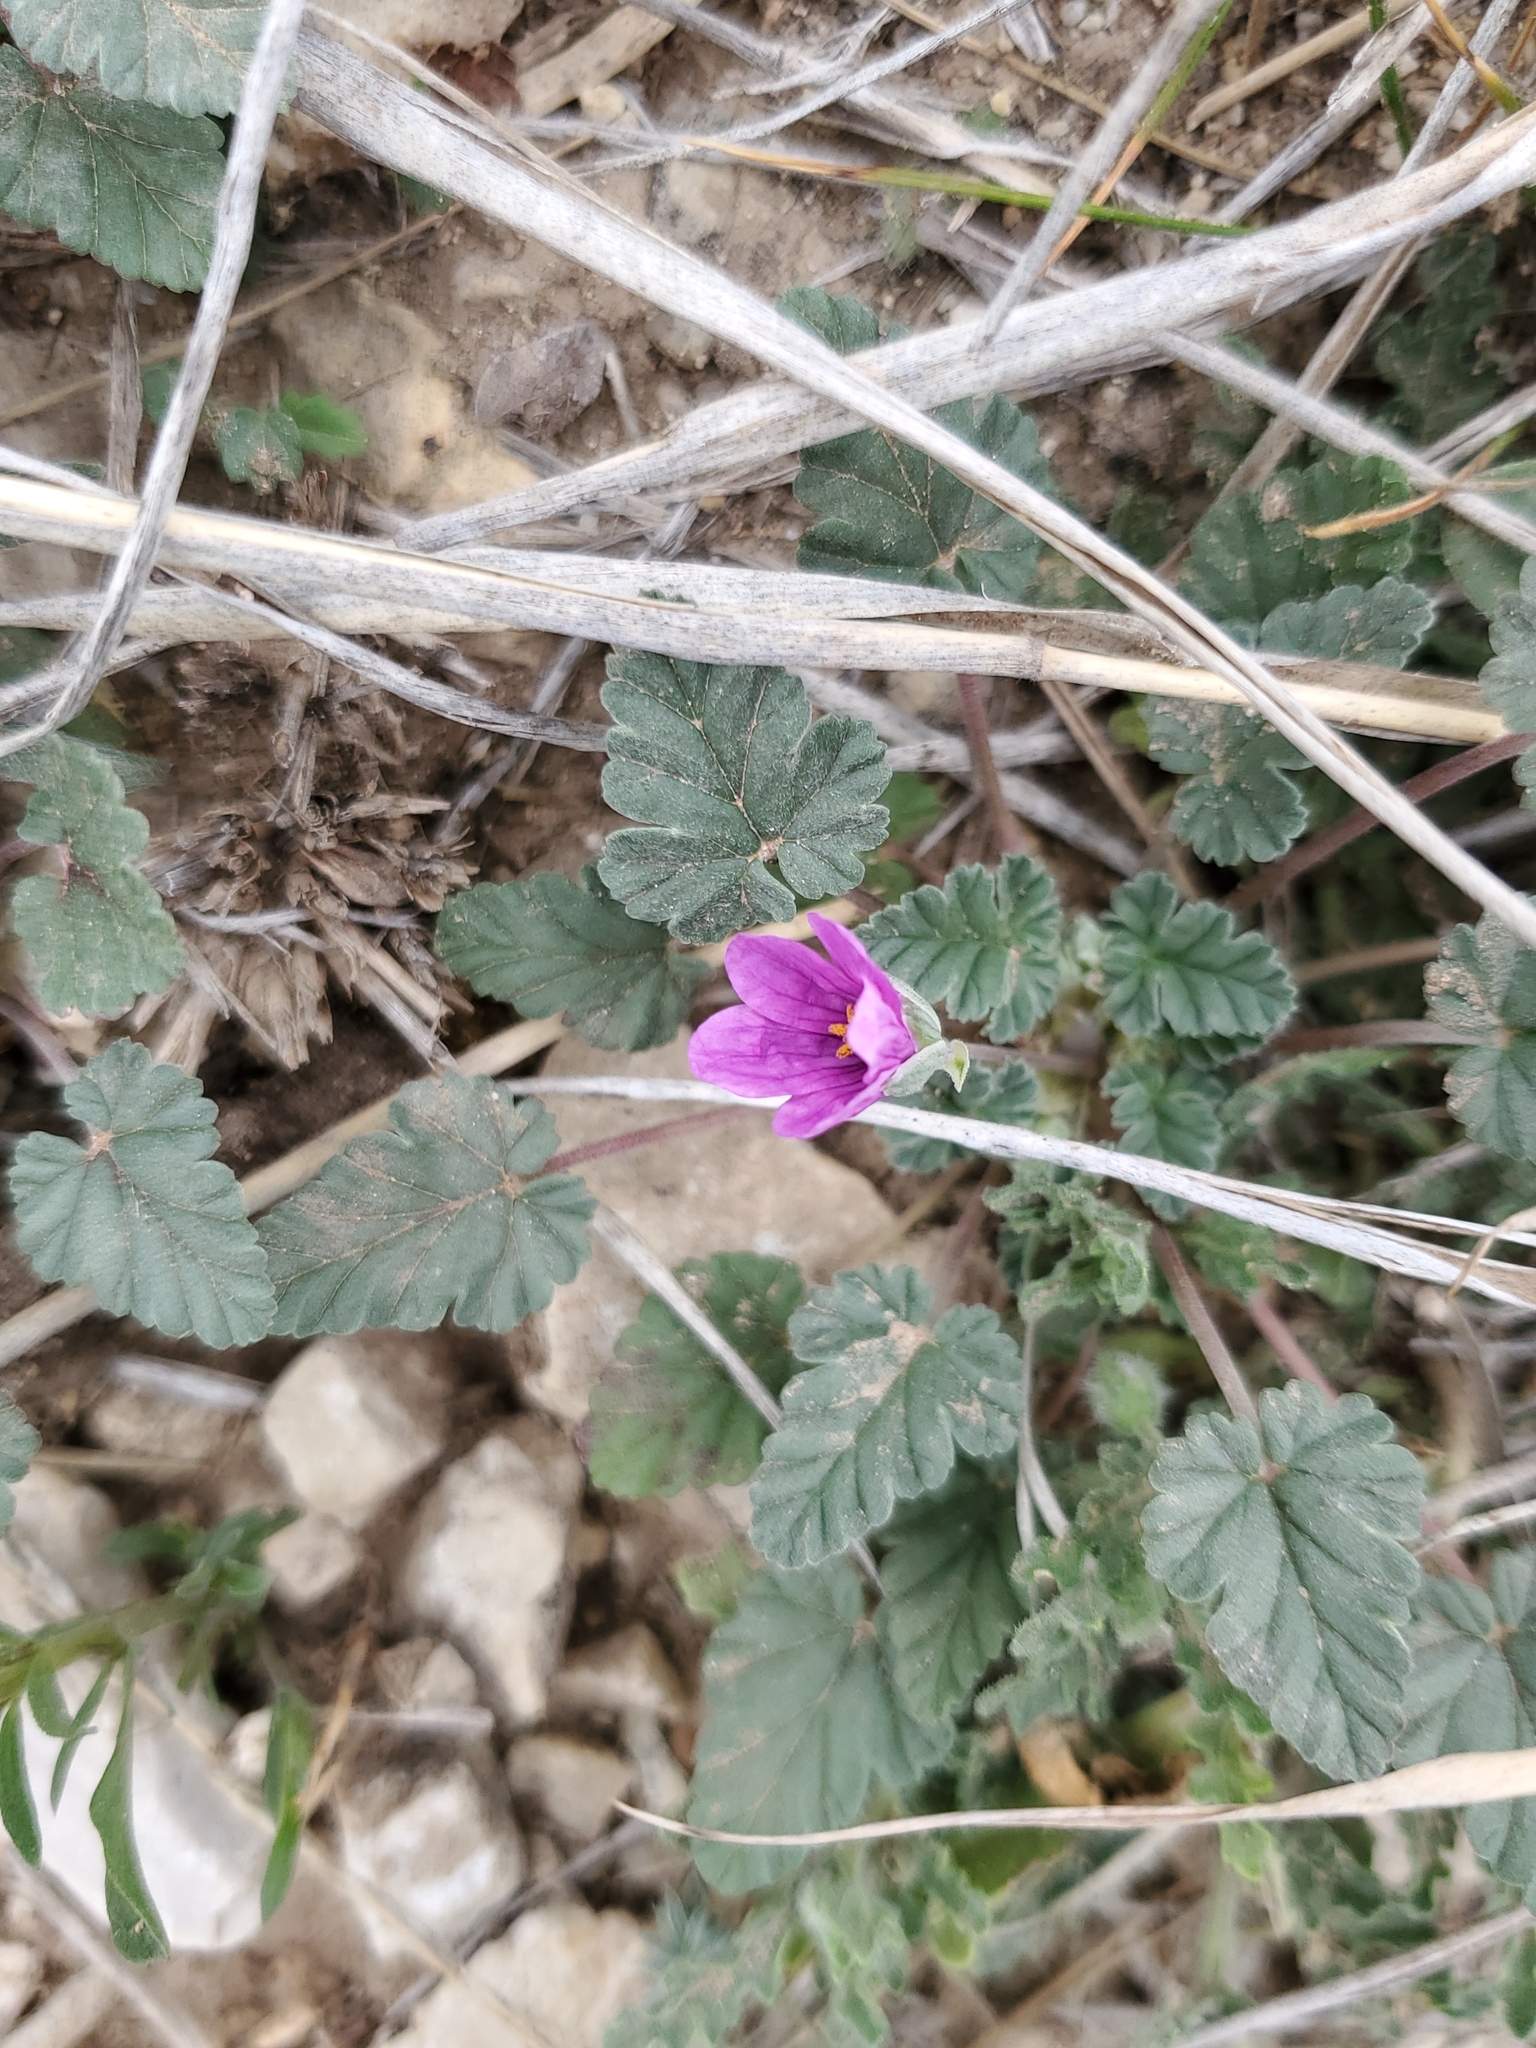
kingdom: Plantae
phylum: Tracheophyta
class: Magnoliopsida
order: Geraniales
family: Geraniaceae
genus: Erodium
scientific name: Erodium texanum
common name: Texas stork's-bill
